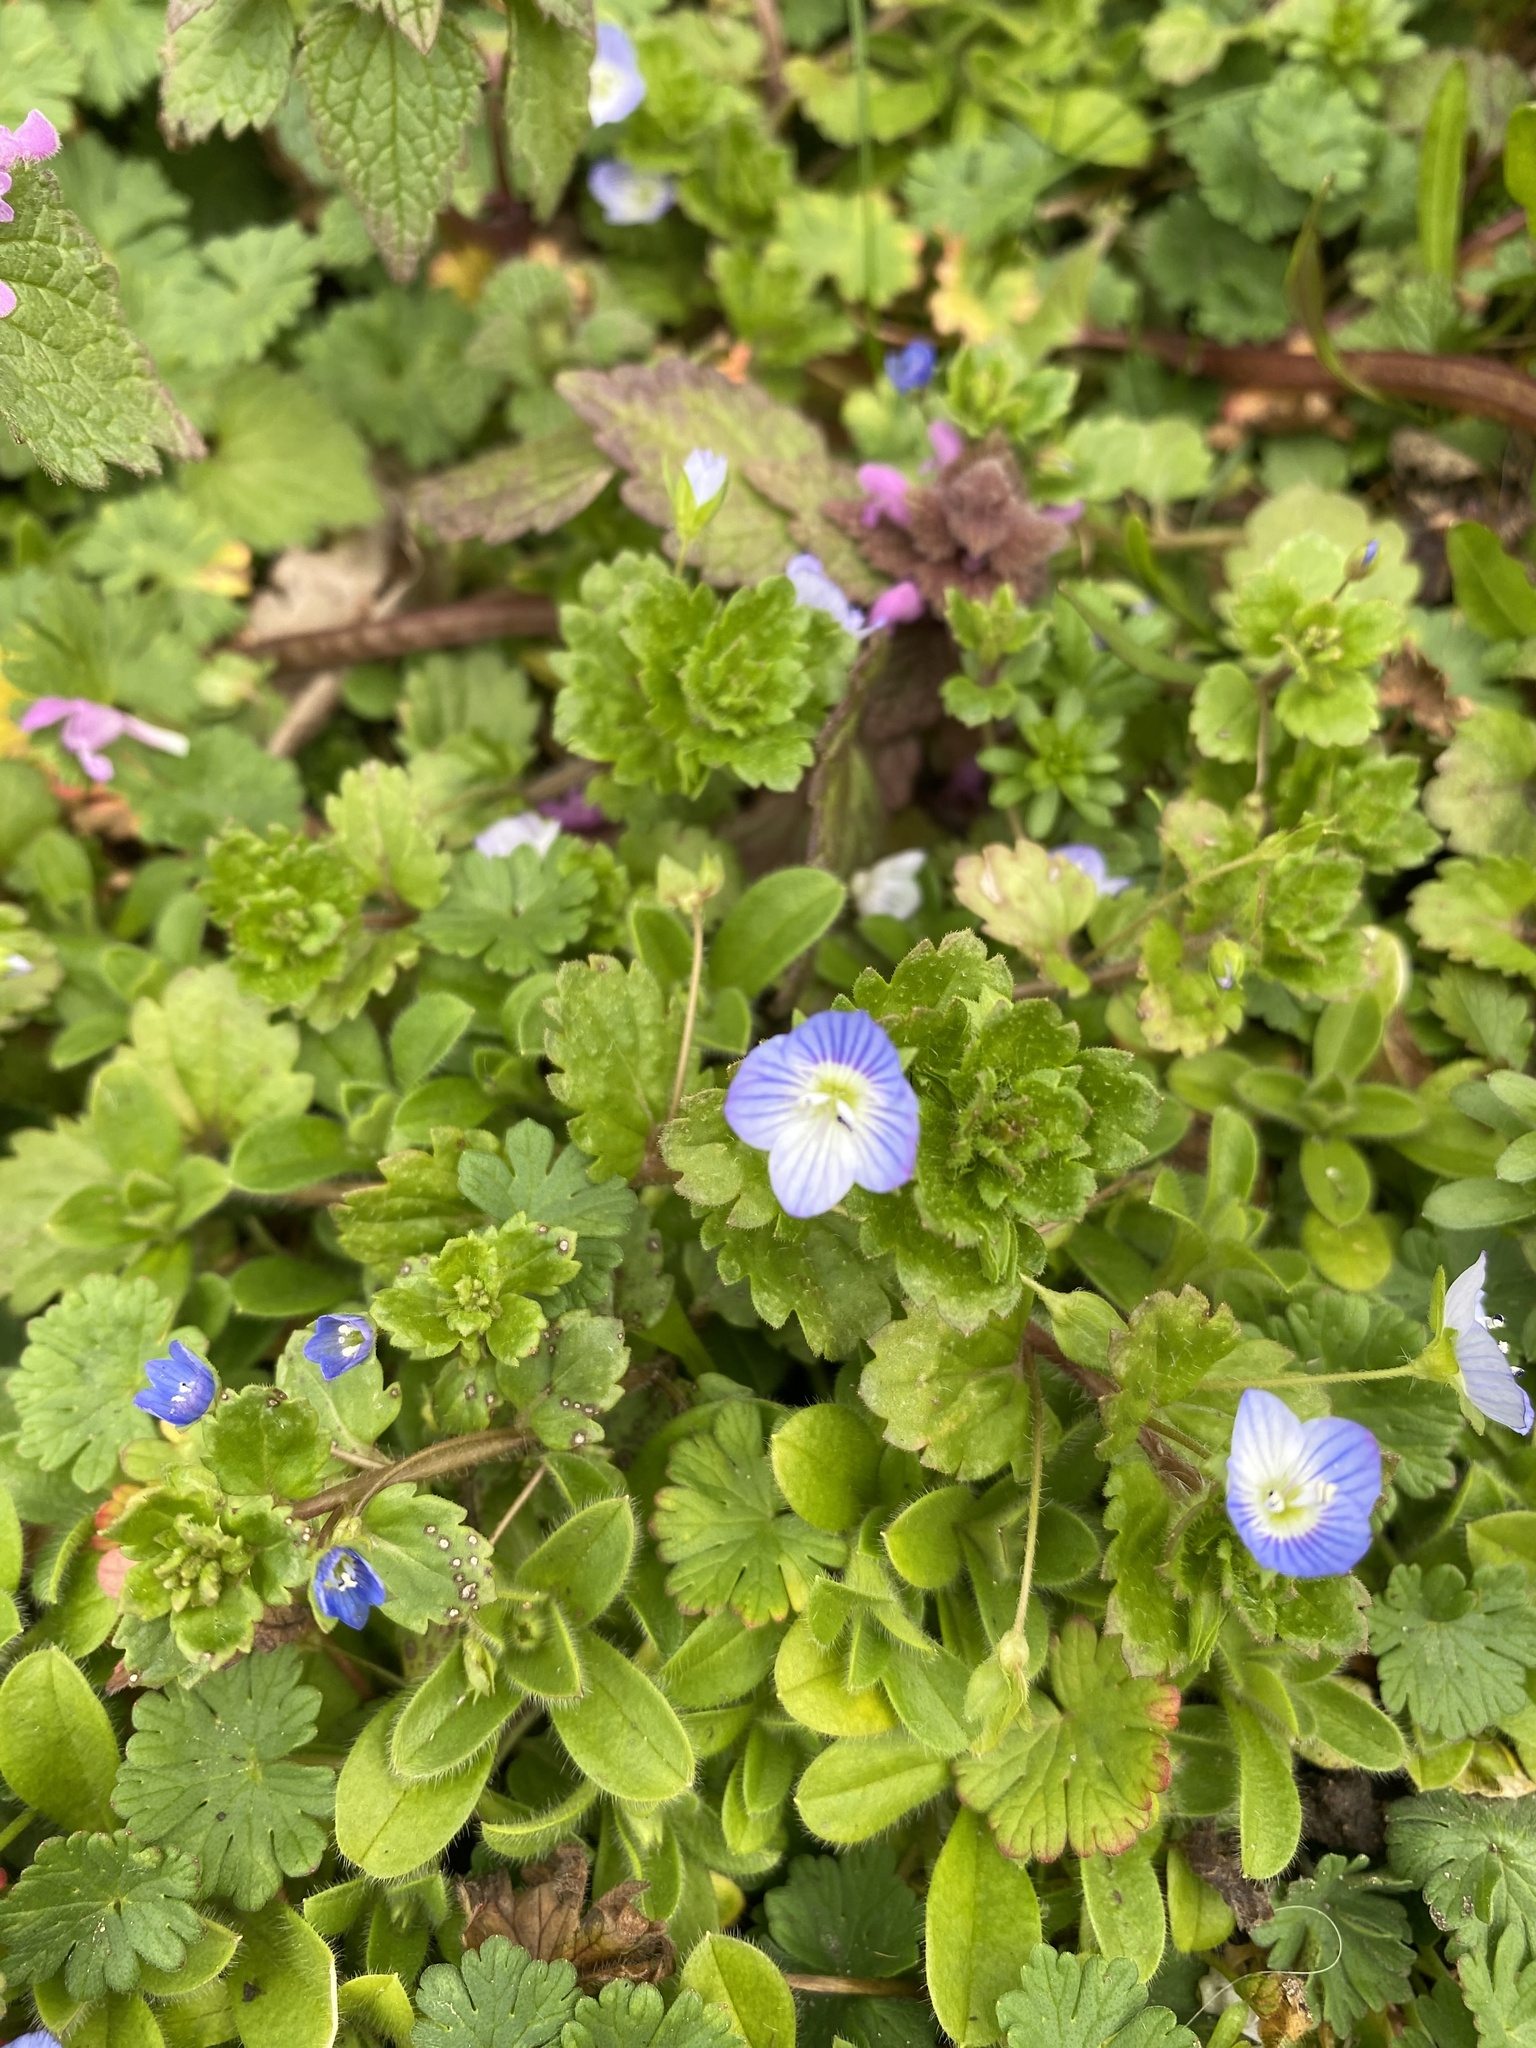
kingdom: Plantae
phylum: Tracheophyta
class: Magnoliopsida
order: Lamiales
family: Plantaginaceae
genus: Veronica
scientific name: Veronica persica
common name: Common field-speedwell
